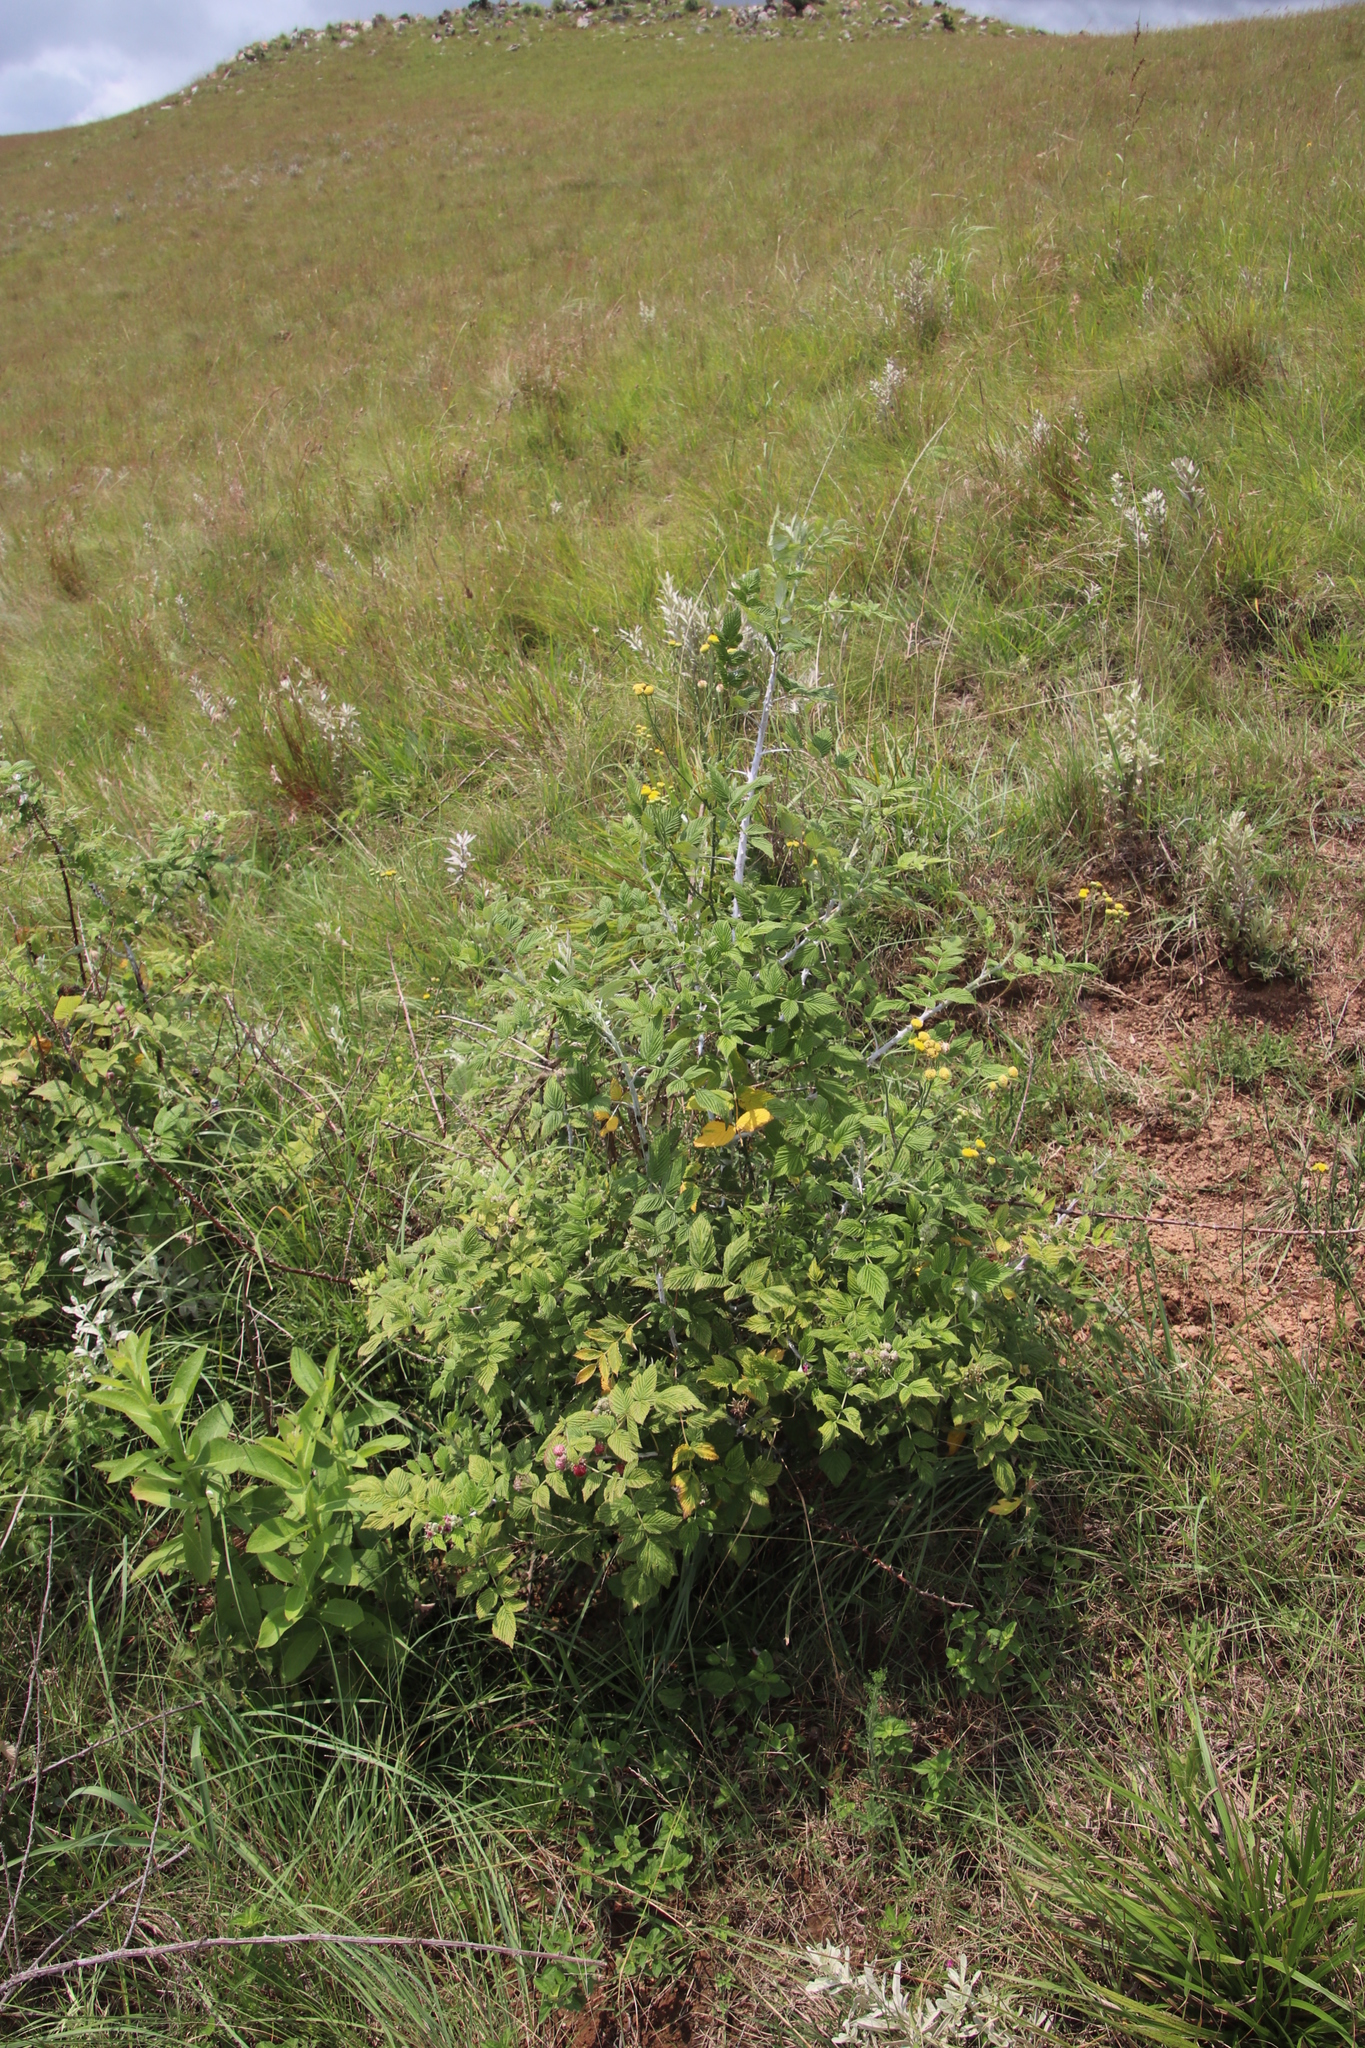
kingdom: Plantae
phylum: Tracheophyta
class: Magnoliopsida
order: Rosales
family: Rosaceae
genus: Rubus
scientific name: Rubus niveus
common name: Snowpeaks raspberry
